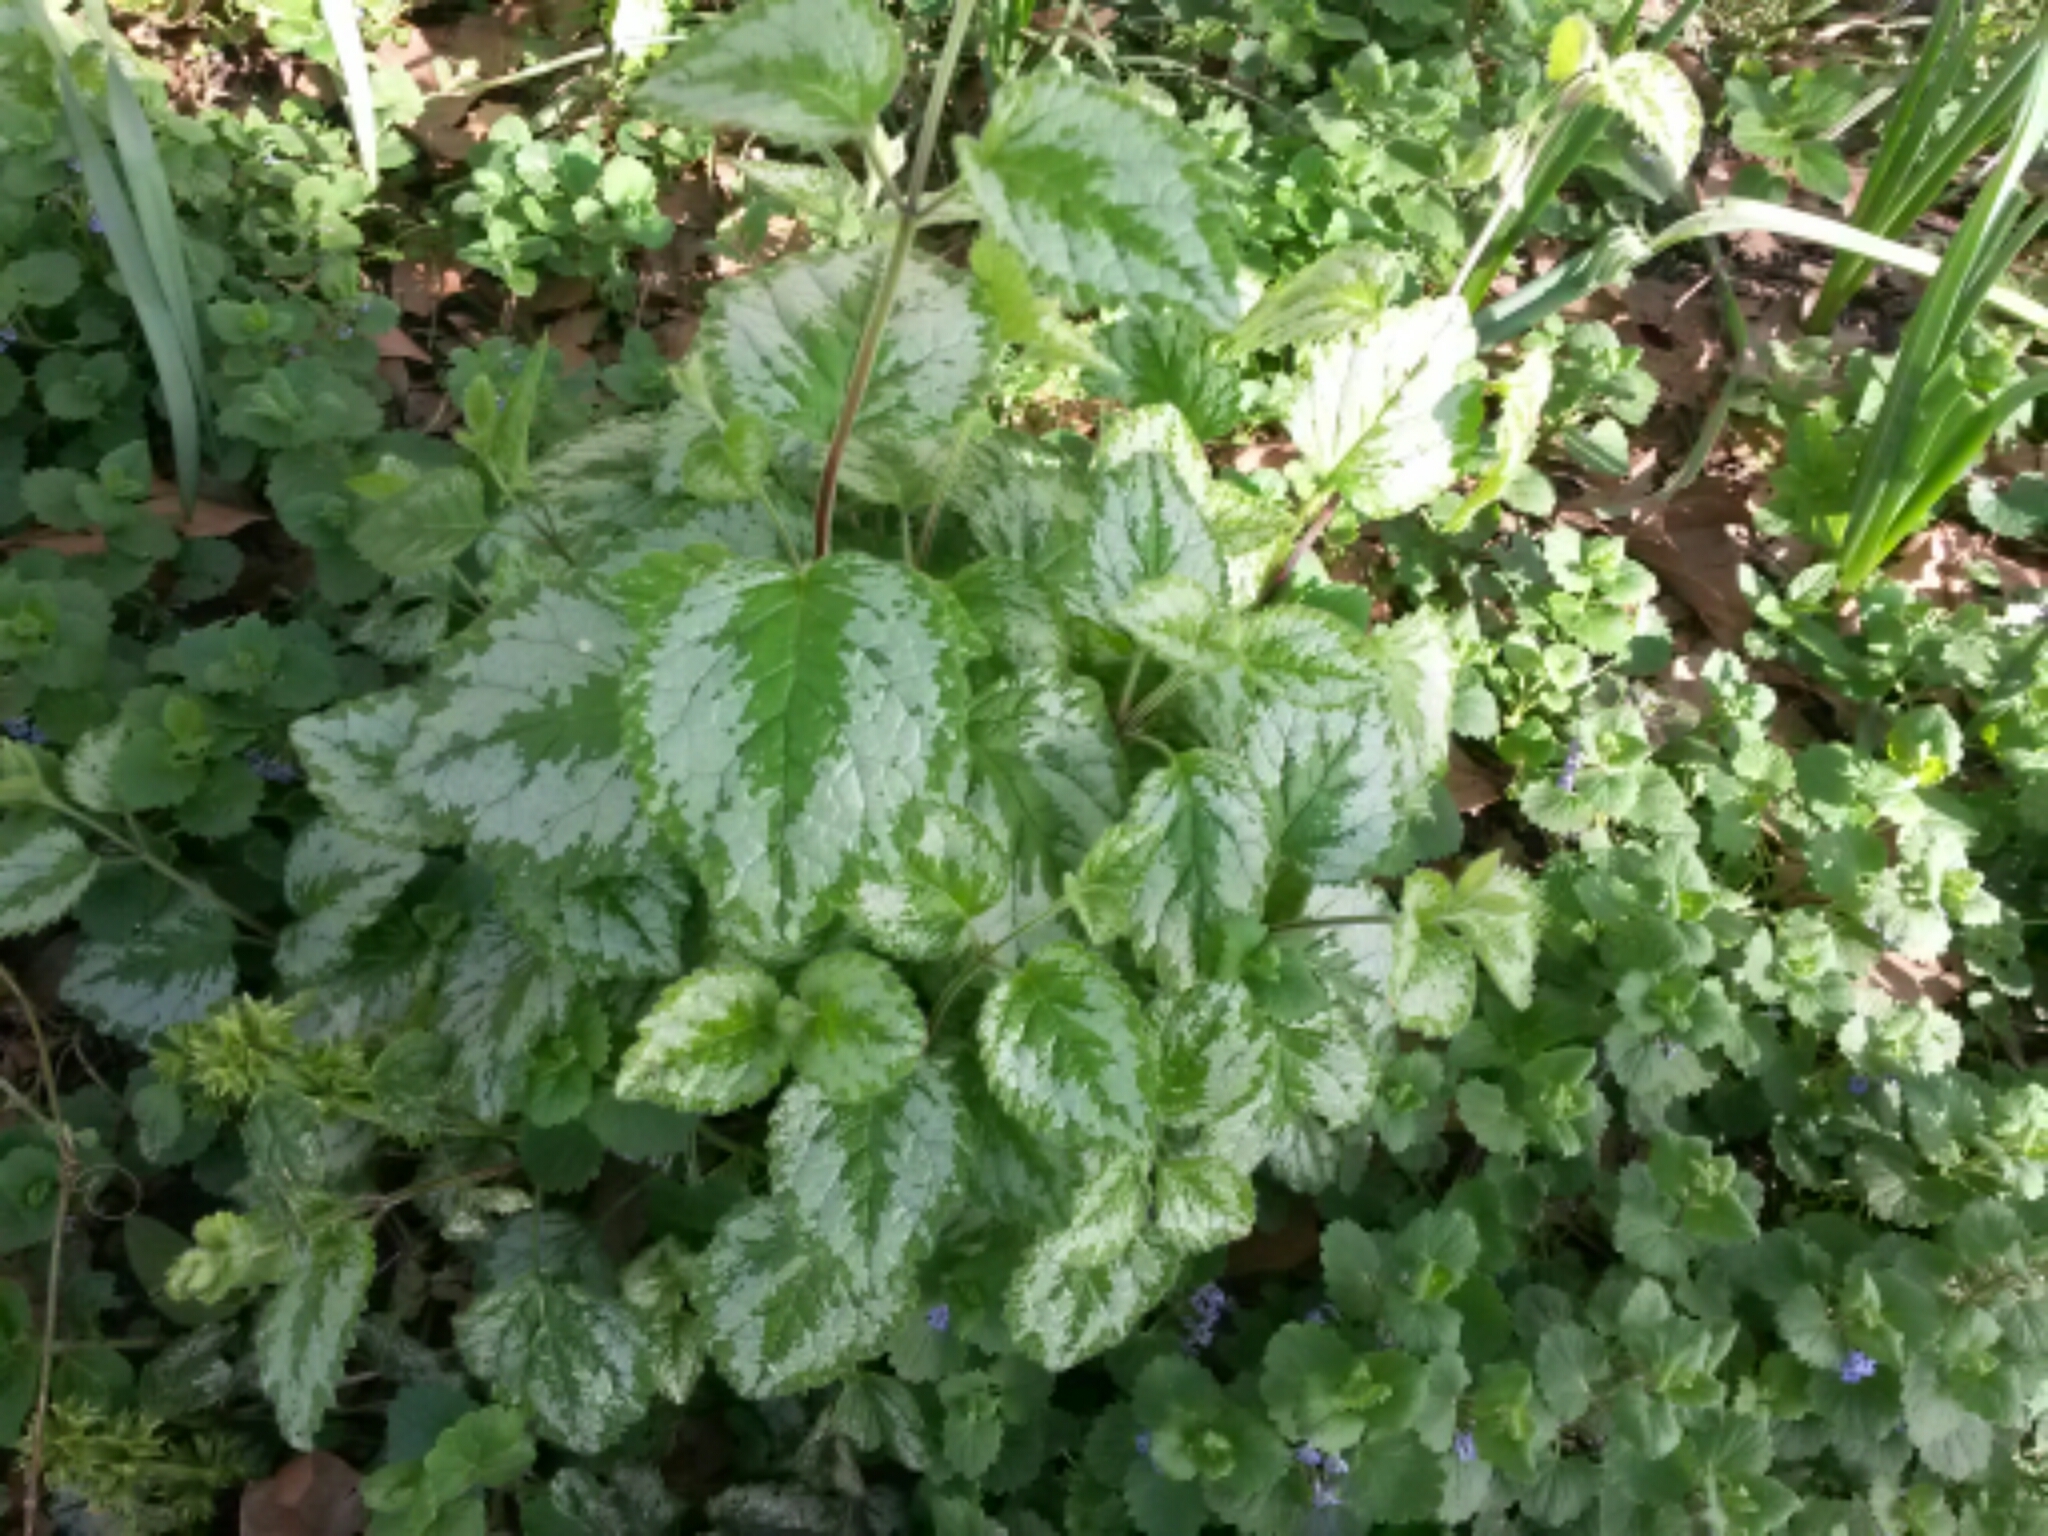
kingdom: Plantae
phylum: Tracheophyta
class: Magnoliopsida
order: Lamiales
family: Lamiaceae
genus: Lamium
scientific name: Lamium galeobdolon
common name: Yellow archangel
